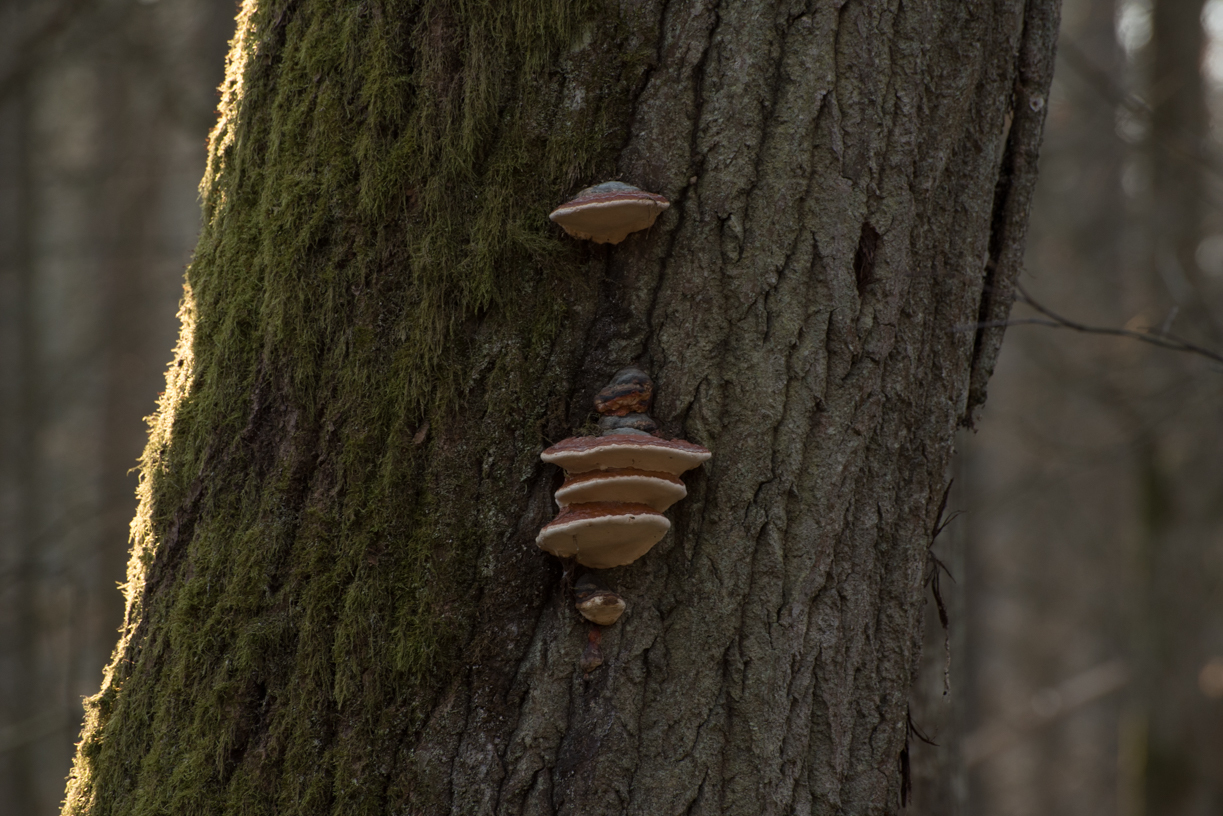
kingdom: Fungi
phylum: Basidiomycota
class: Agaricomycetes
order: Polyporales
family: Fomitopsidaceae
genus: Fomitopsis
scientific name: Fomitopsis pinicola
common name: Red-belted bracket
